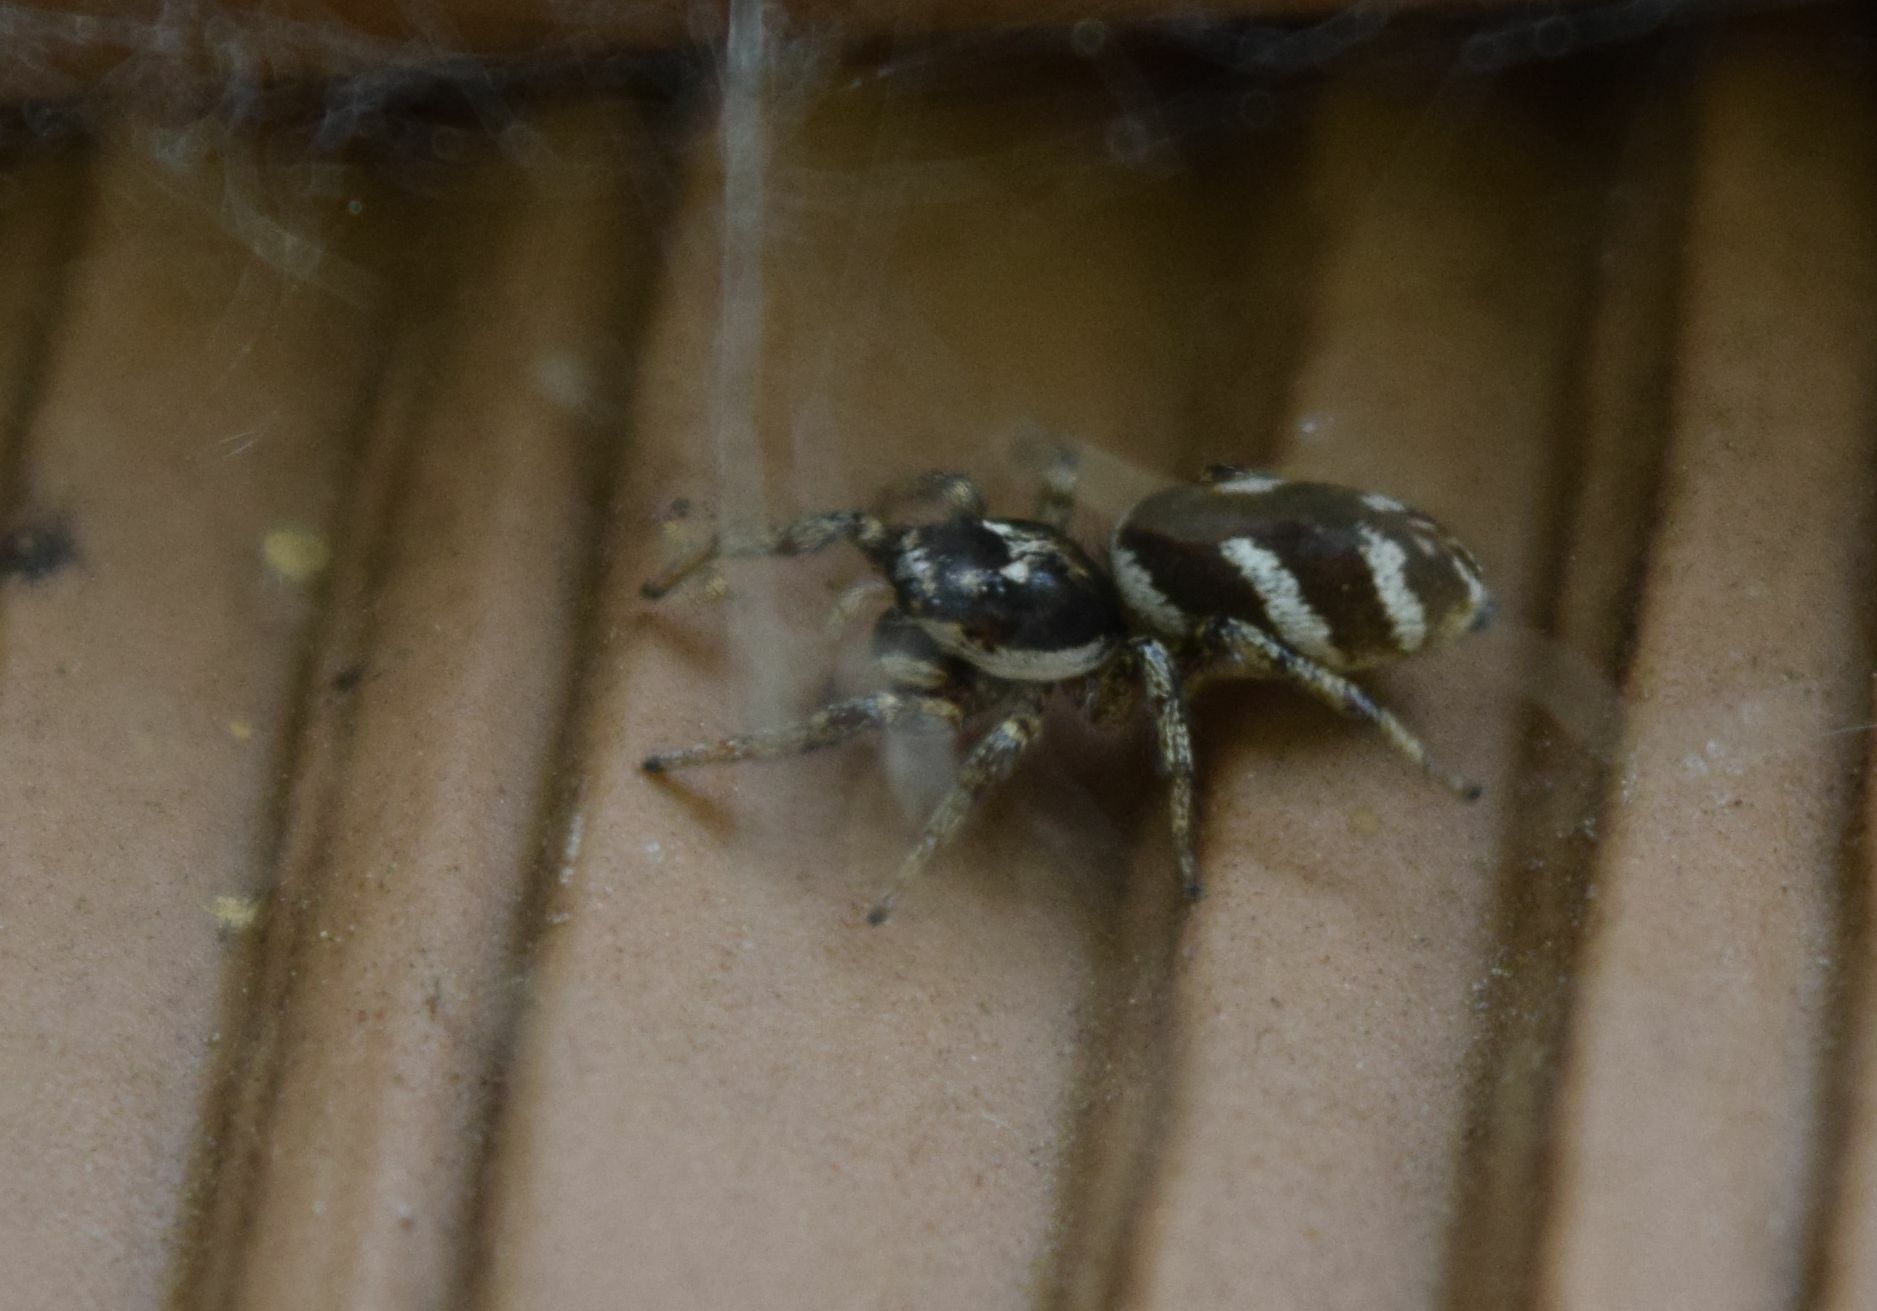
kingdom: Animalia
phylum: Arthropoda
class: Arachnida
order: Araneae
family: Salticidae
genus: Salticus
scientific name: Salticus scenicus
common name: Zebra jumper
